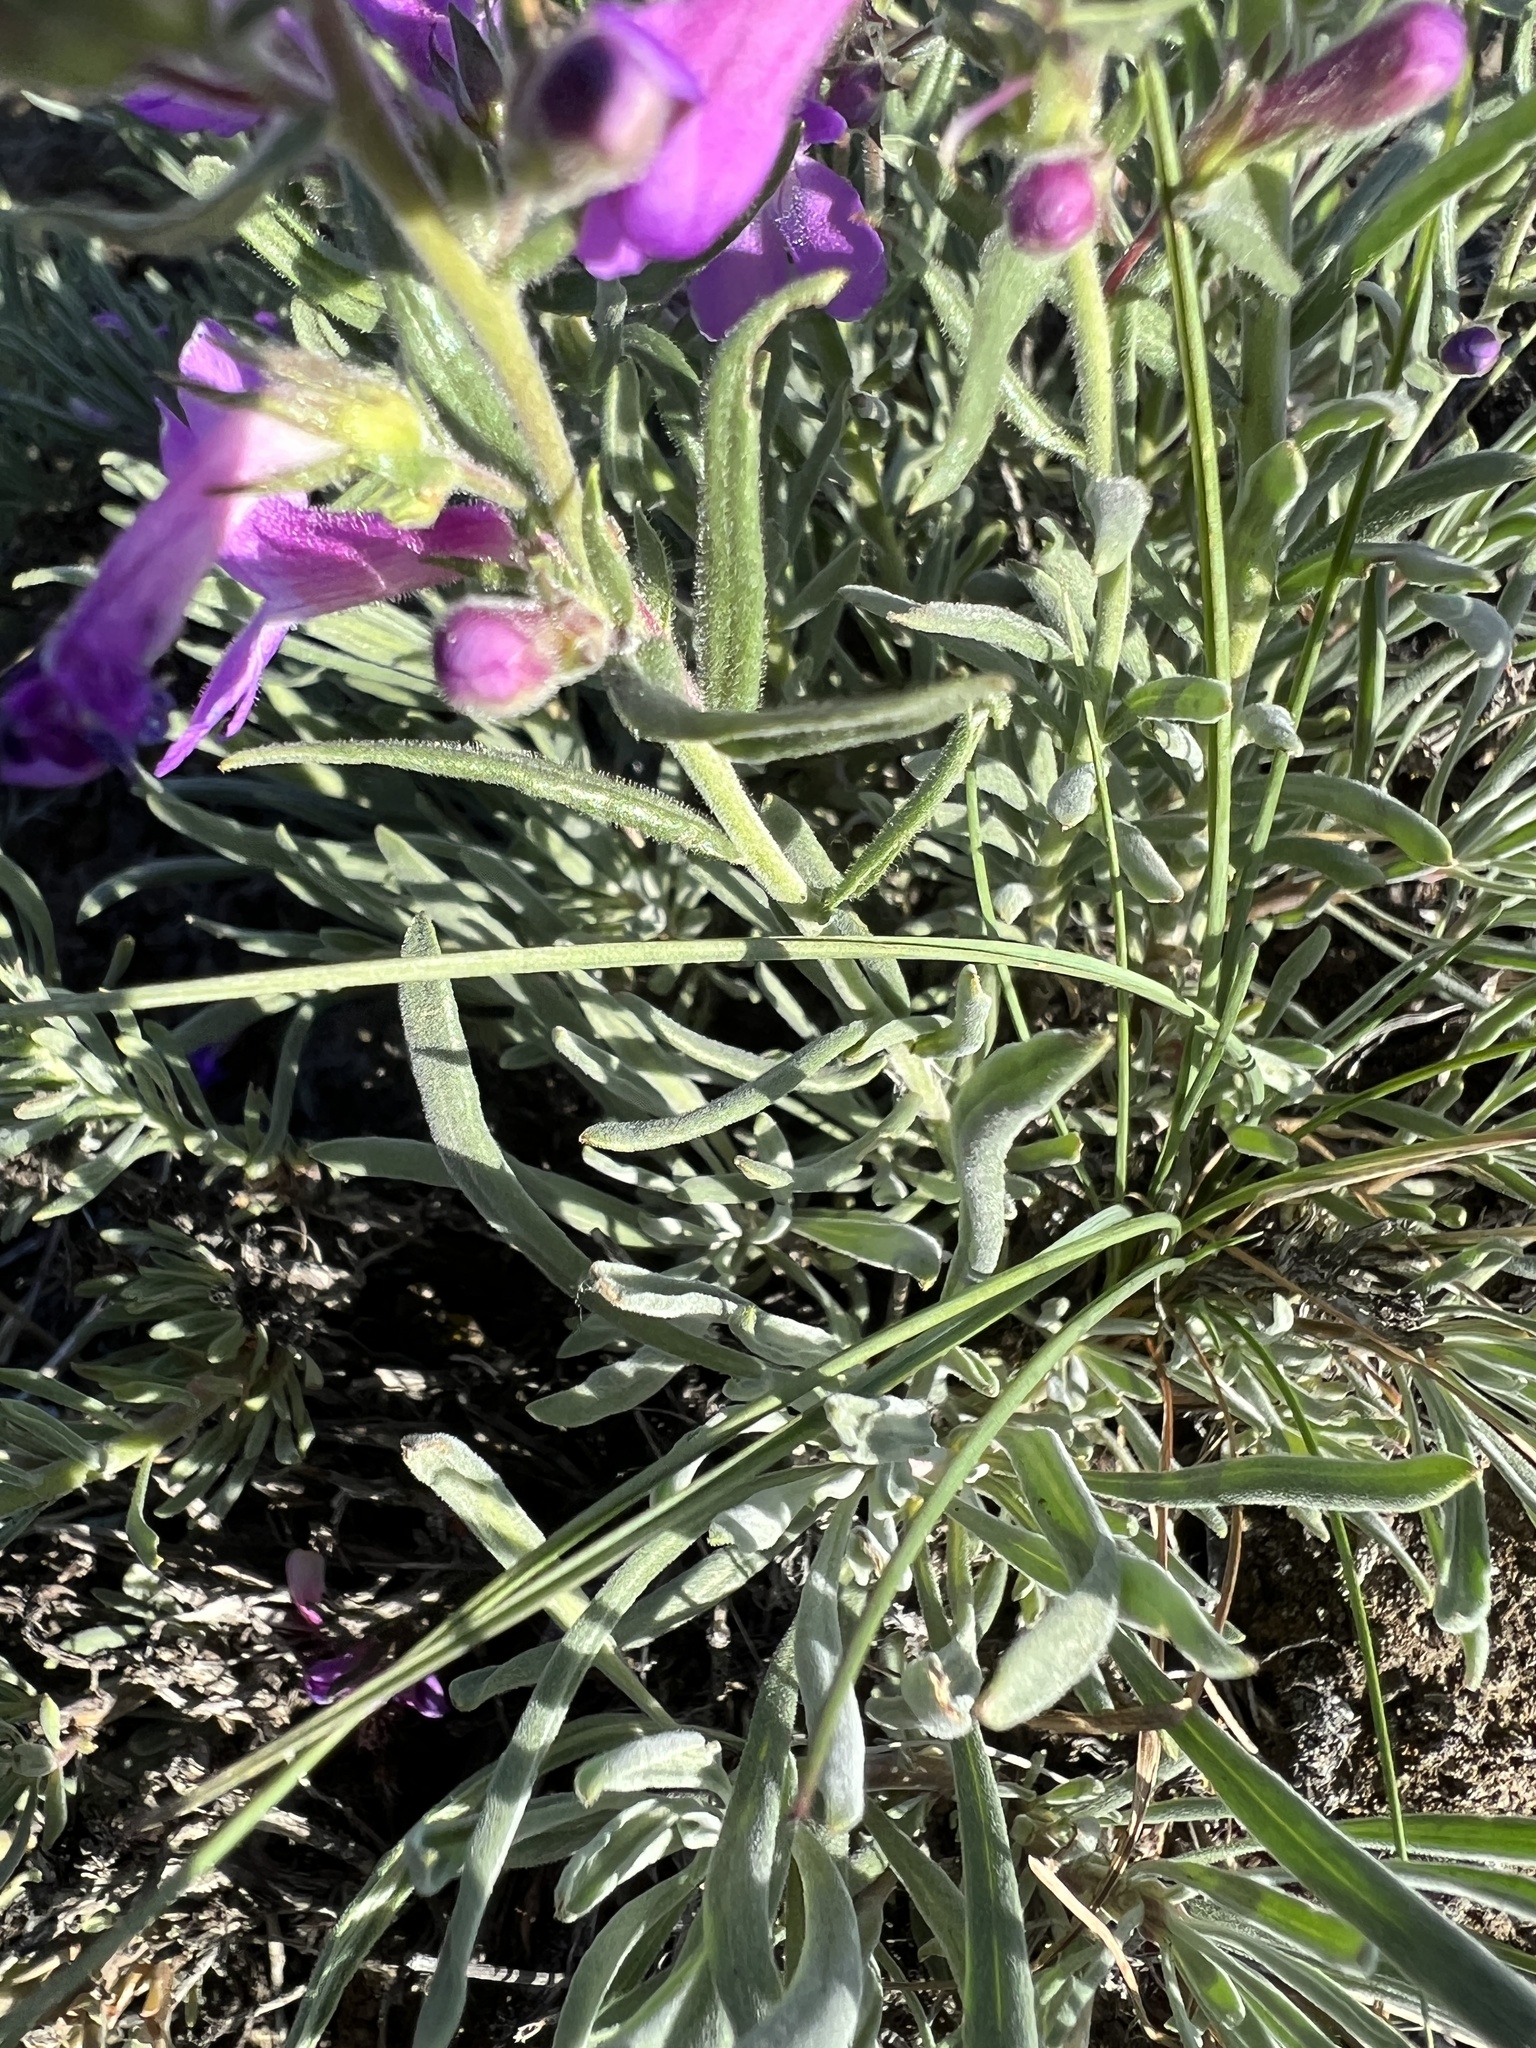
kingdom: Plantae
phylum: Tracheophyta
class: Magnoliopsida
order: Lamiales
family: Plantaginaceae
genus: Penstemon
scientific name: Penstemon gairdneri
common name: Gairdner's penstemon
